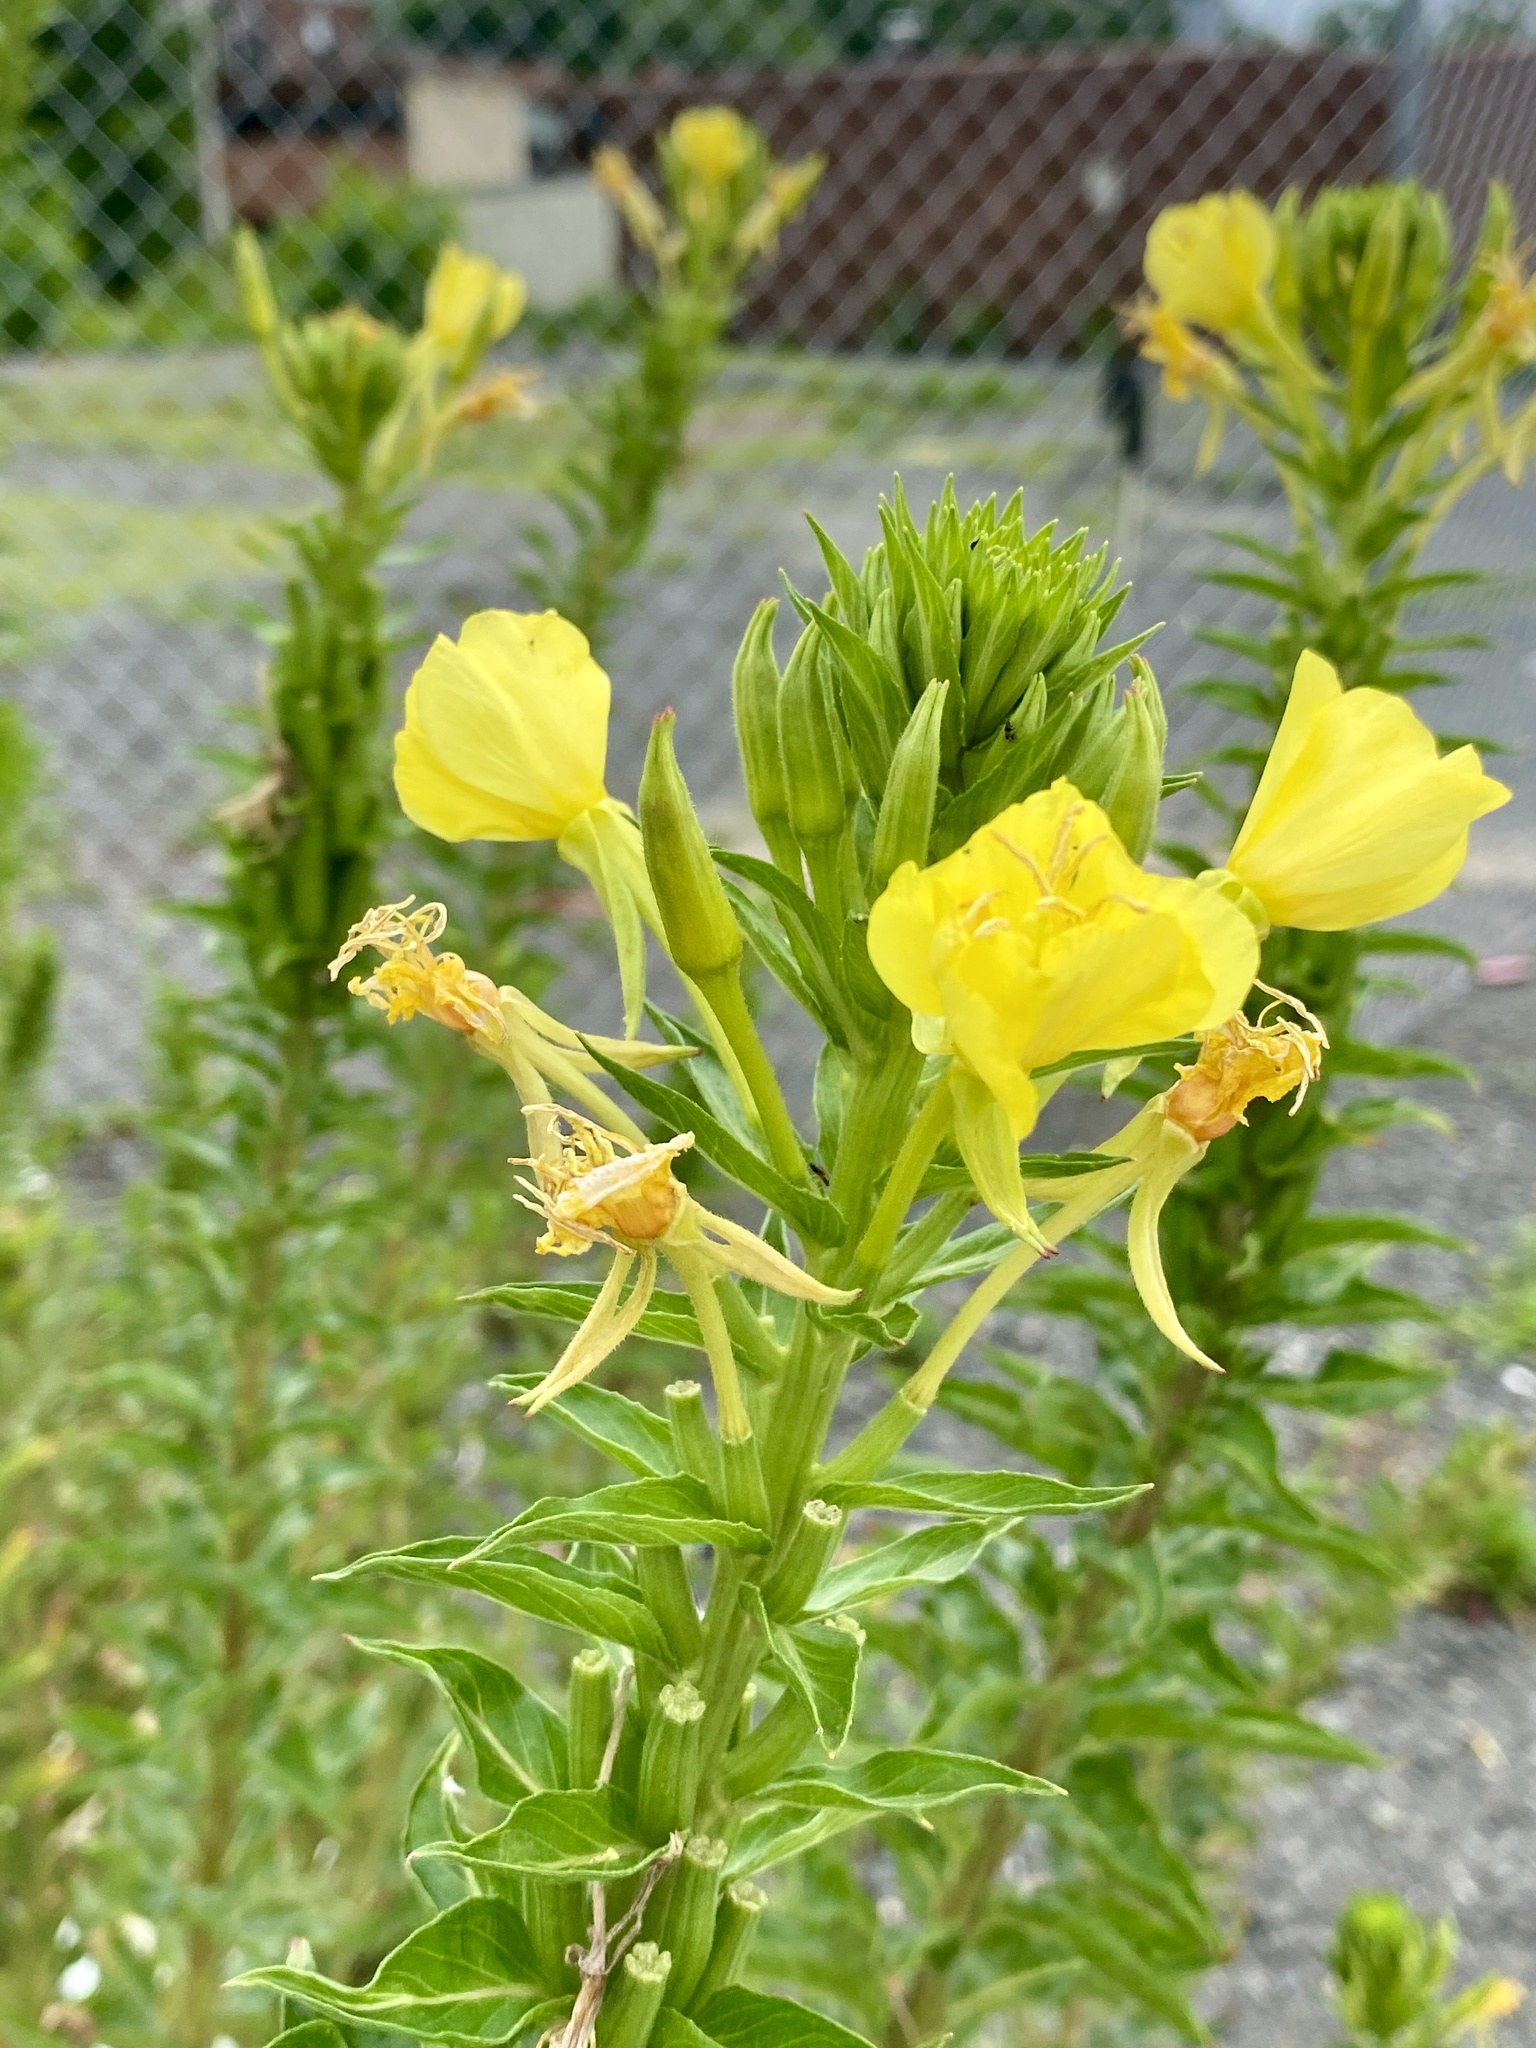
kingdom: Plantae
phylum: Tracheophyta
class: Magnoliopsida
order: Myrtales
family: Onagraceae
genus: Oenothera
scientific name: Oenothera biennis
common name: Common evening-primrose
